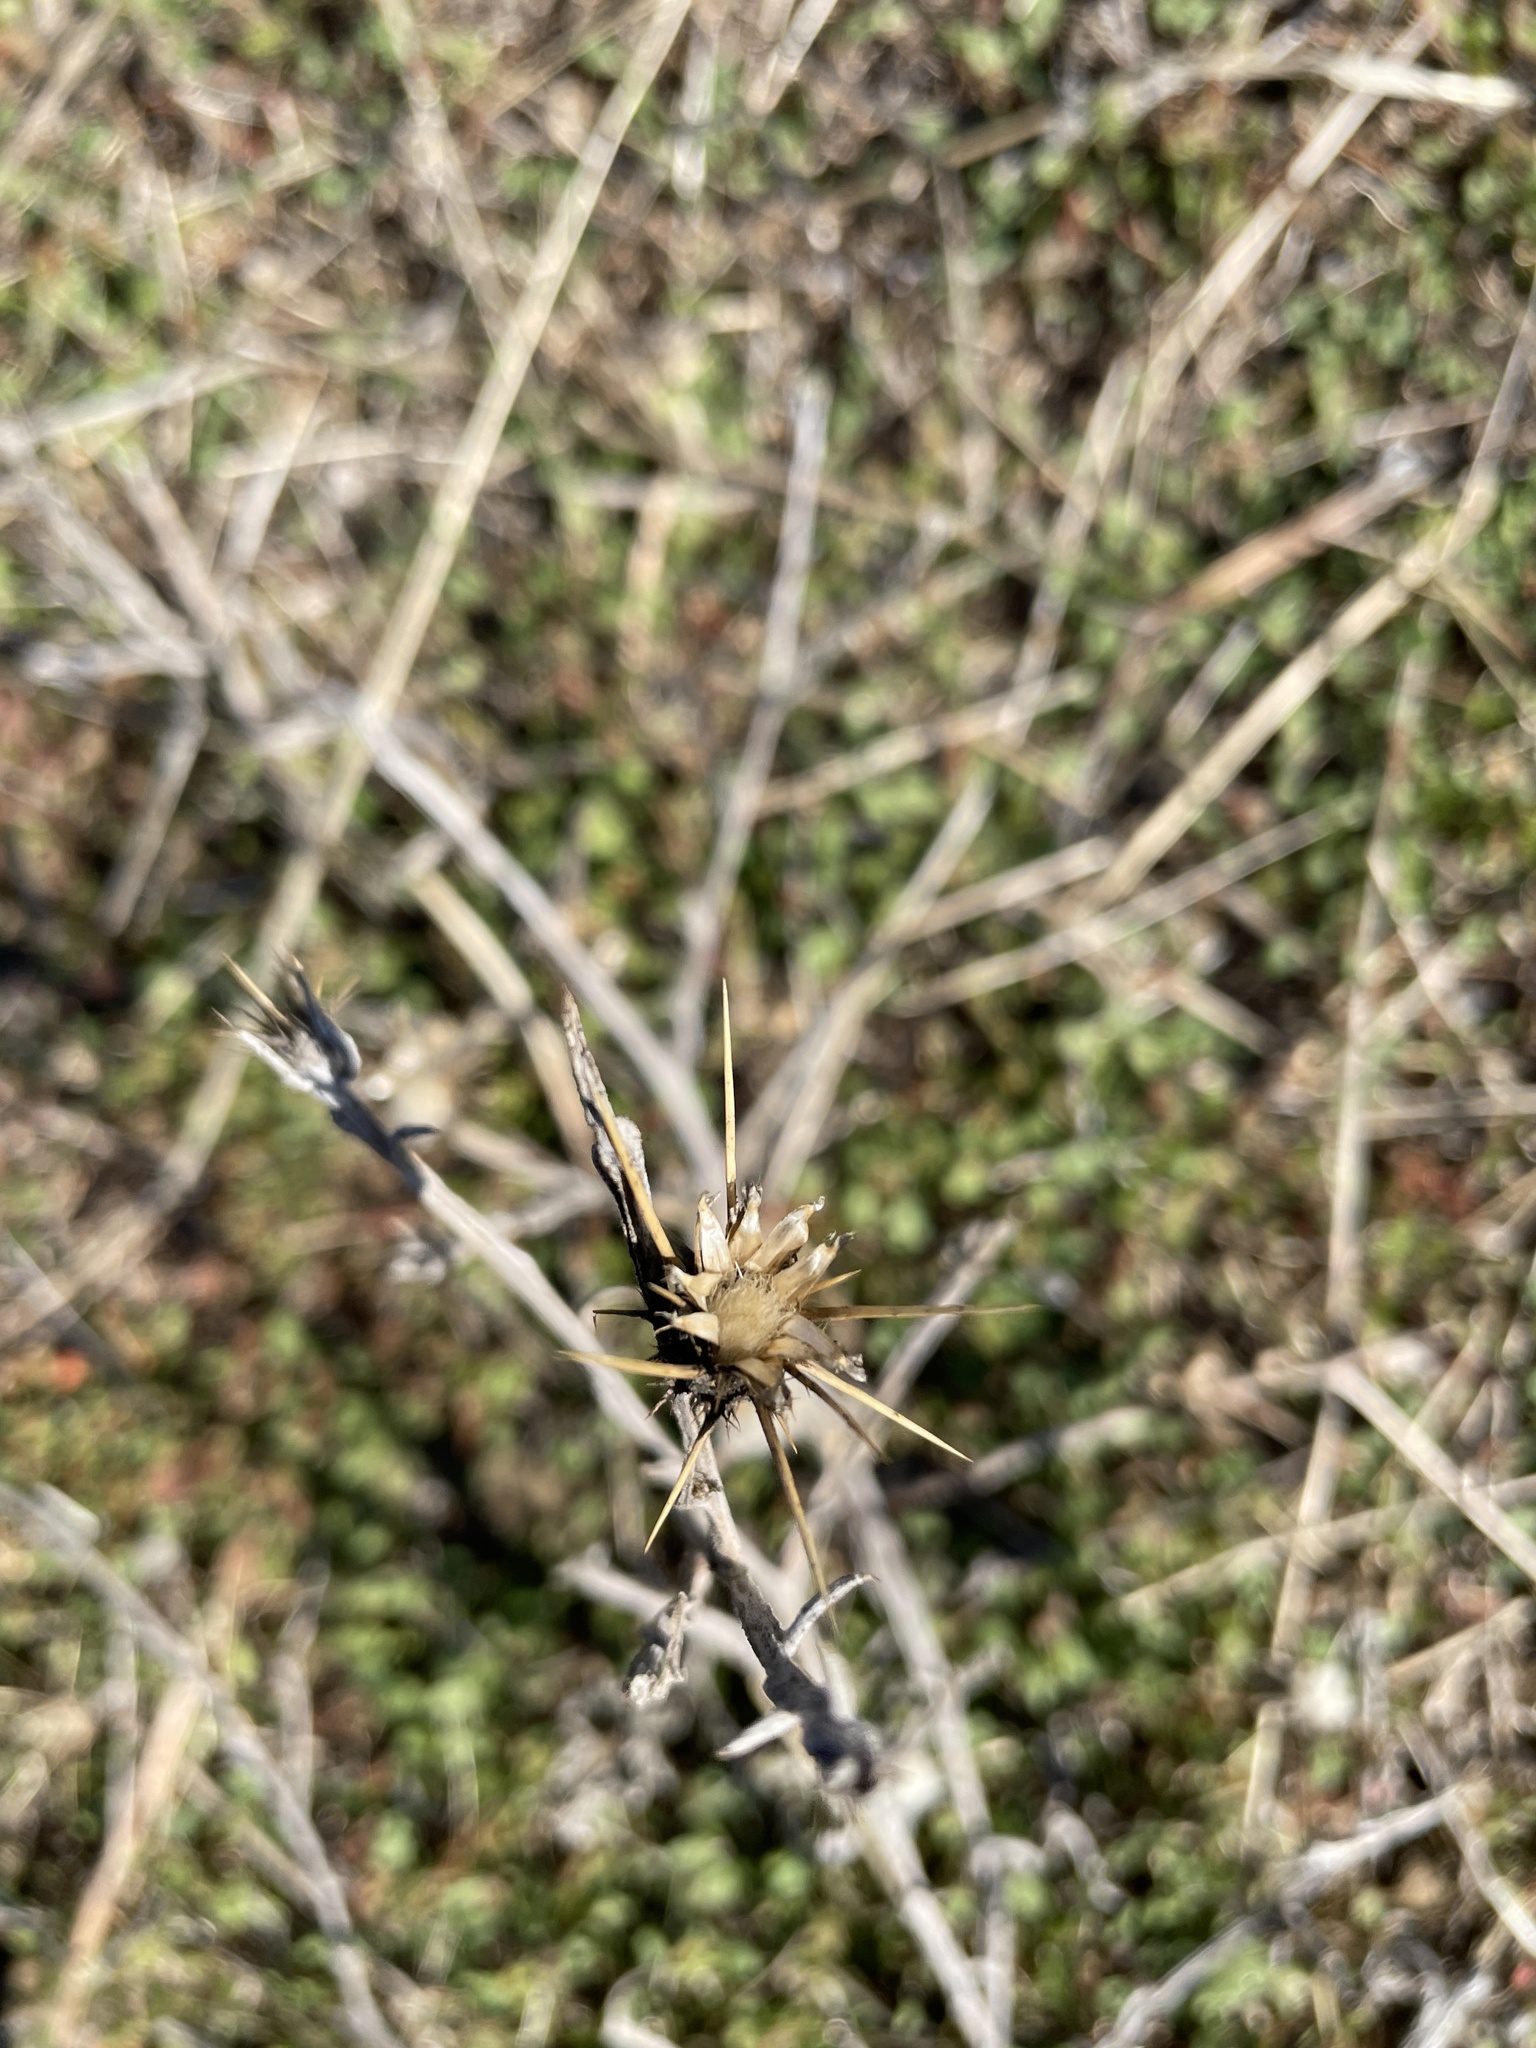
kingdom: Plantae
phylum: Tracheophyta
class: Magnoliopsida
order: Asterales
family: Asteraceae
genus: Centaurea
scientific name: Centaurea solstitialis
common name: Yellow star-thistle
